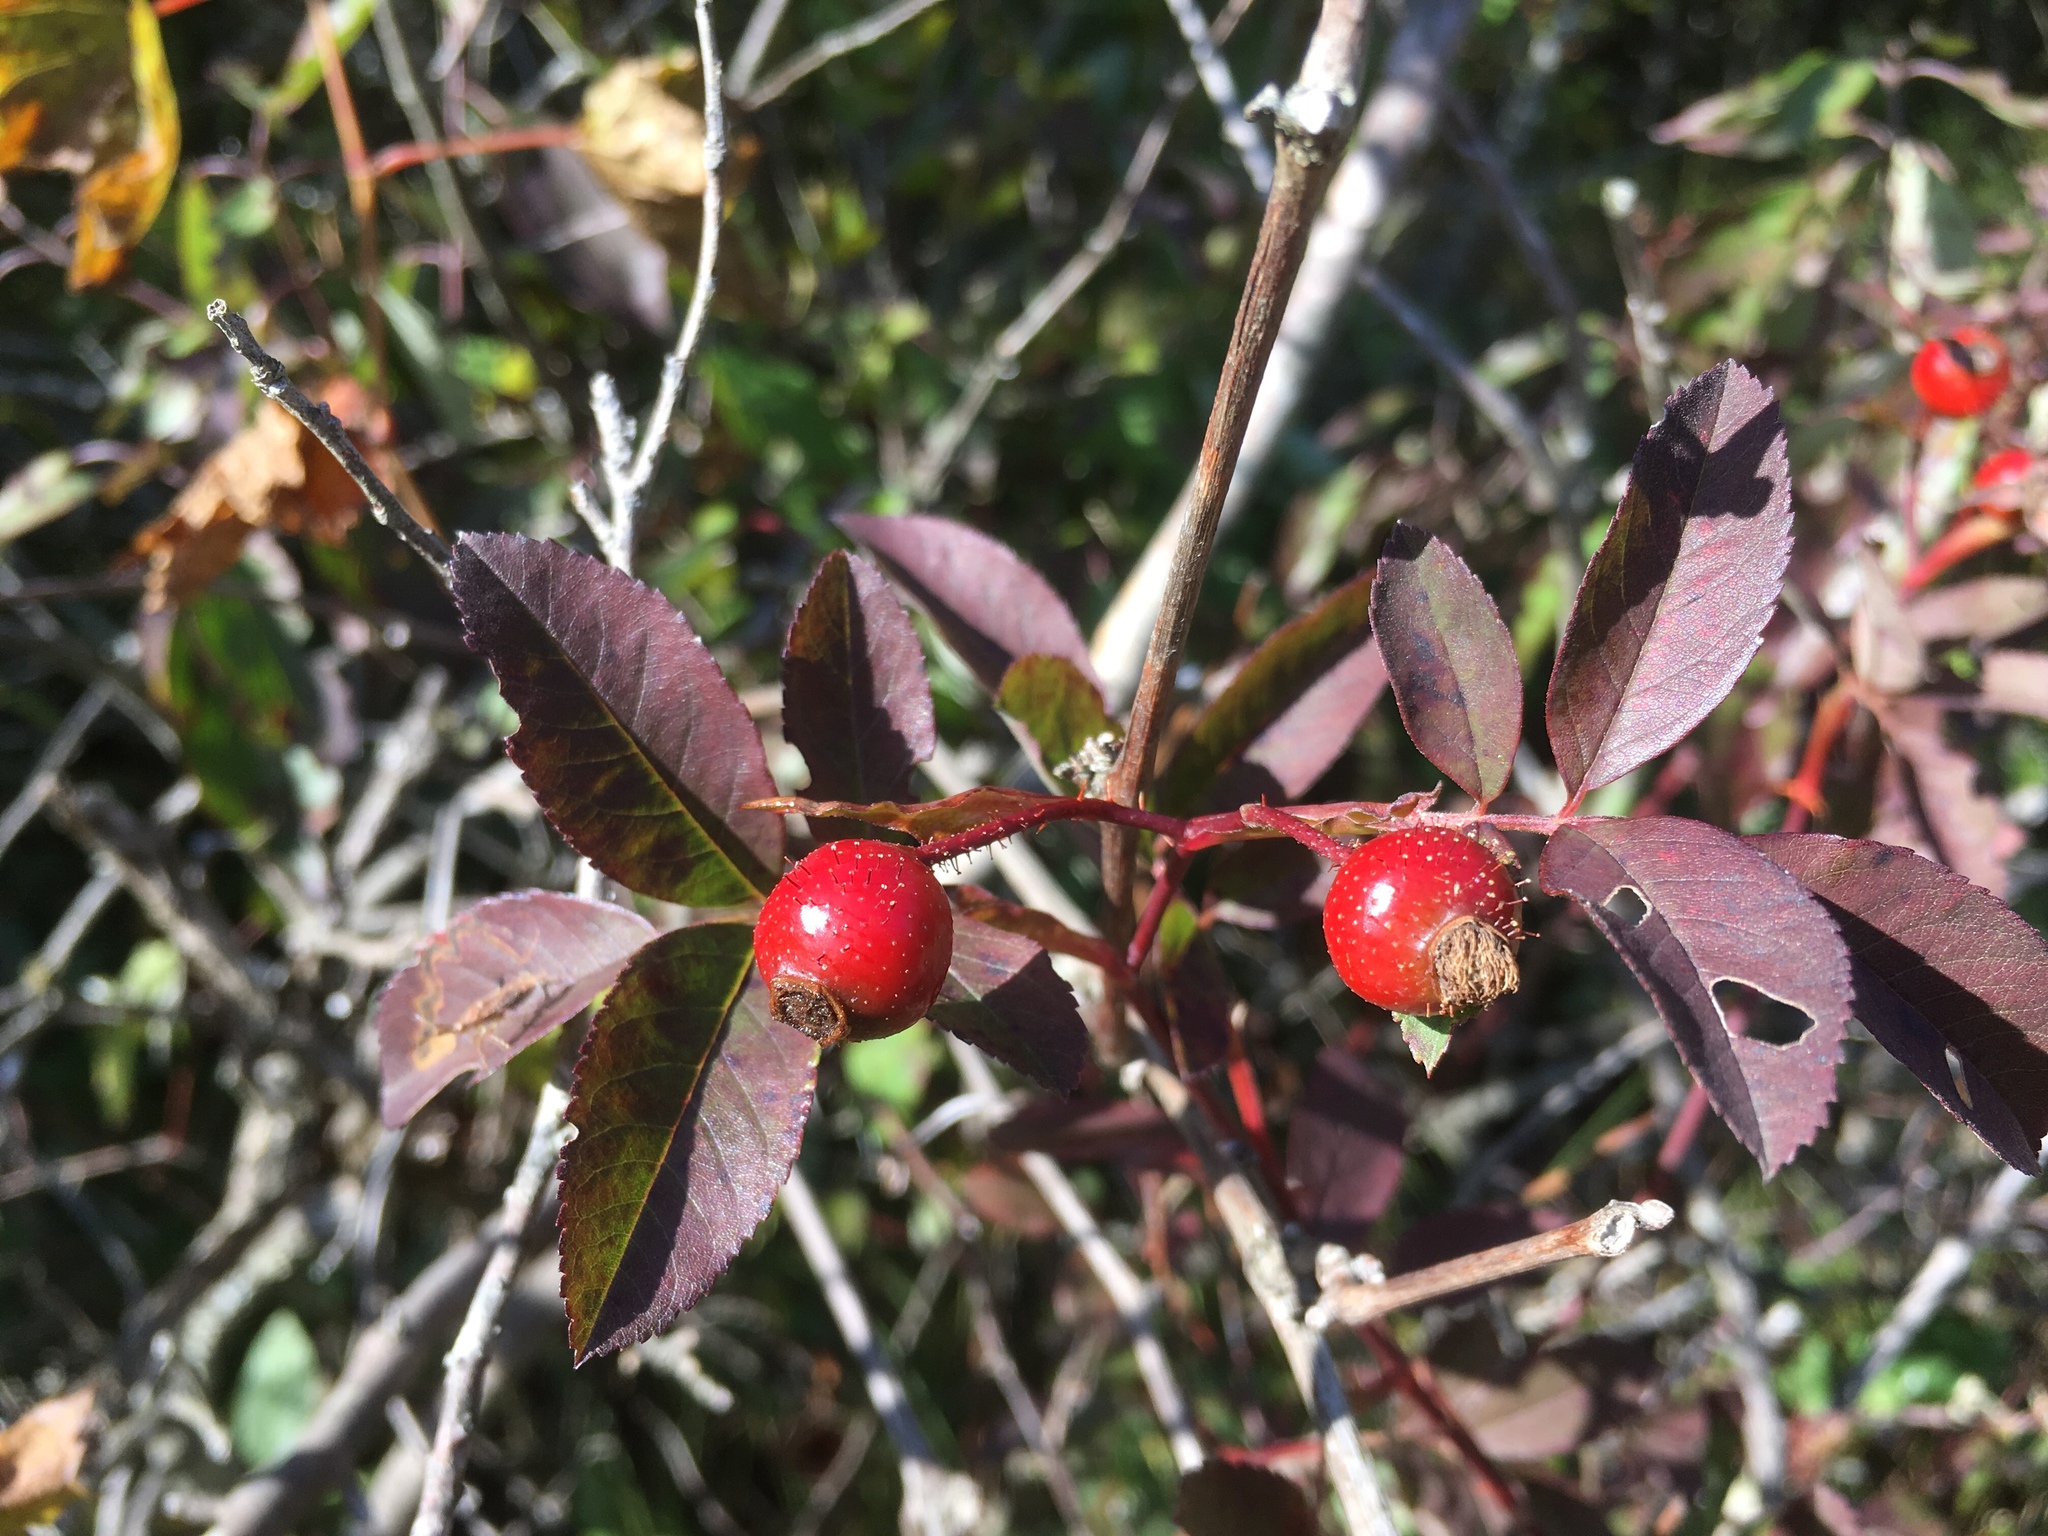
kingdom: Plantae
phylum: Tracheophyta
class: Magnoliopsida
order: Rosales
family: Rosaceae
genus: Rosa
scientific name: Rosa palustris
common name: Swamp rose
